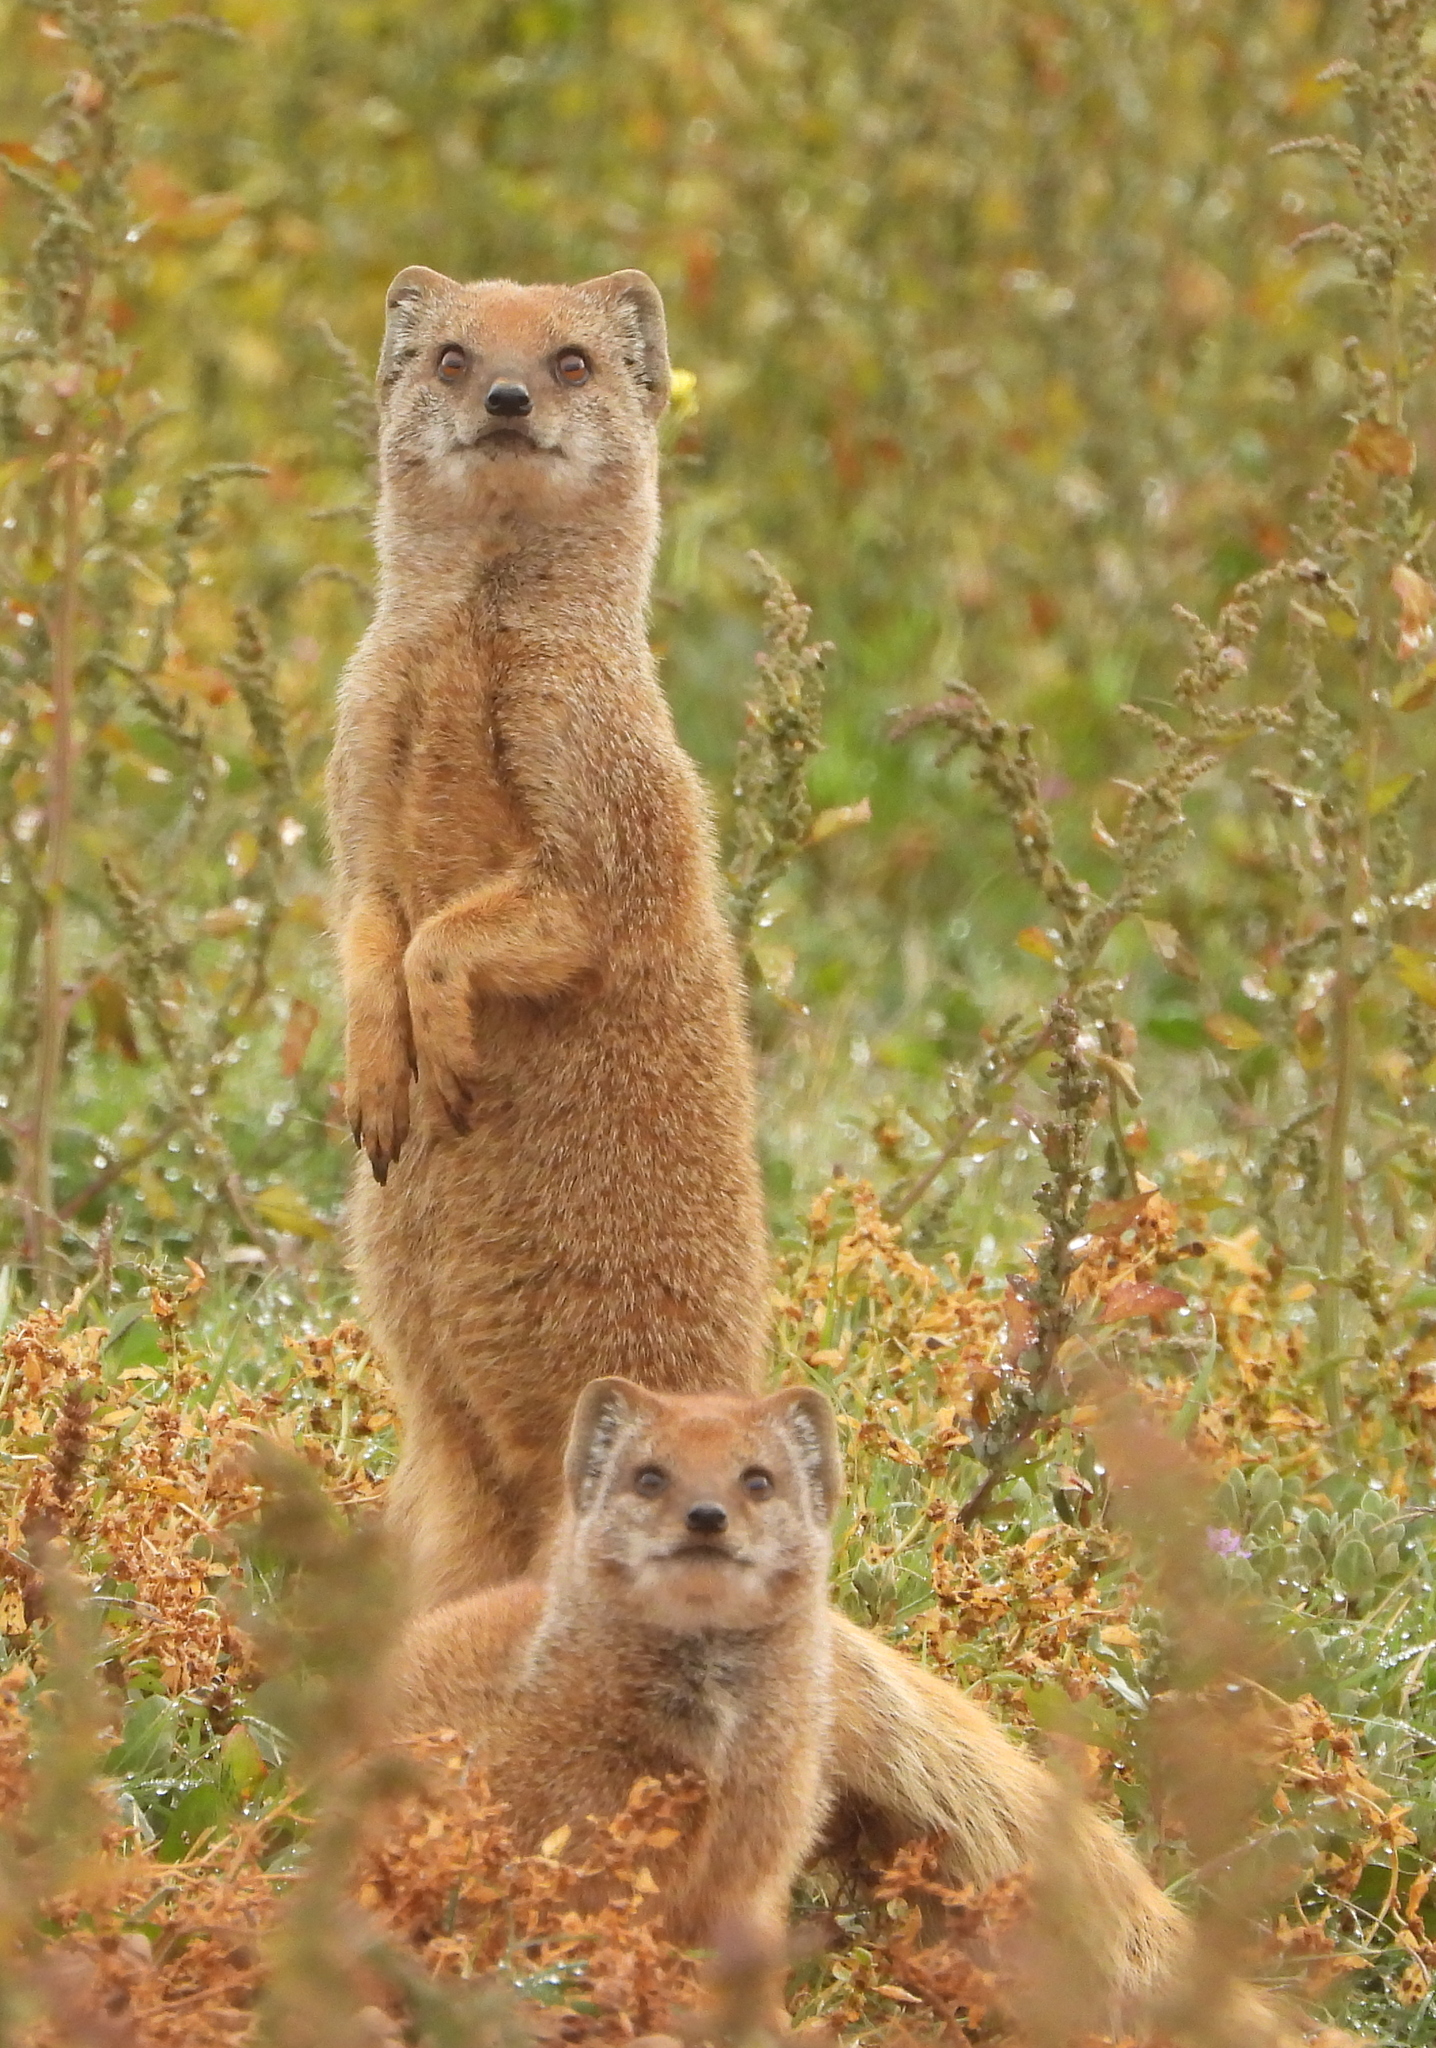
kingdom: Animalia
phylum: Chordata
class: Mammalia
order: Carnivora
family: Herpestidae
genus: Cynictis
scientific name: Cynictis penicillata
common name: Yellow mongoose
